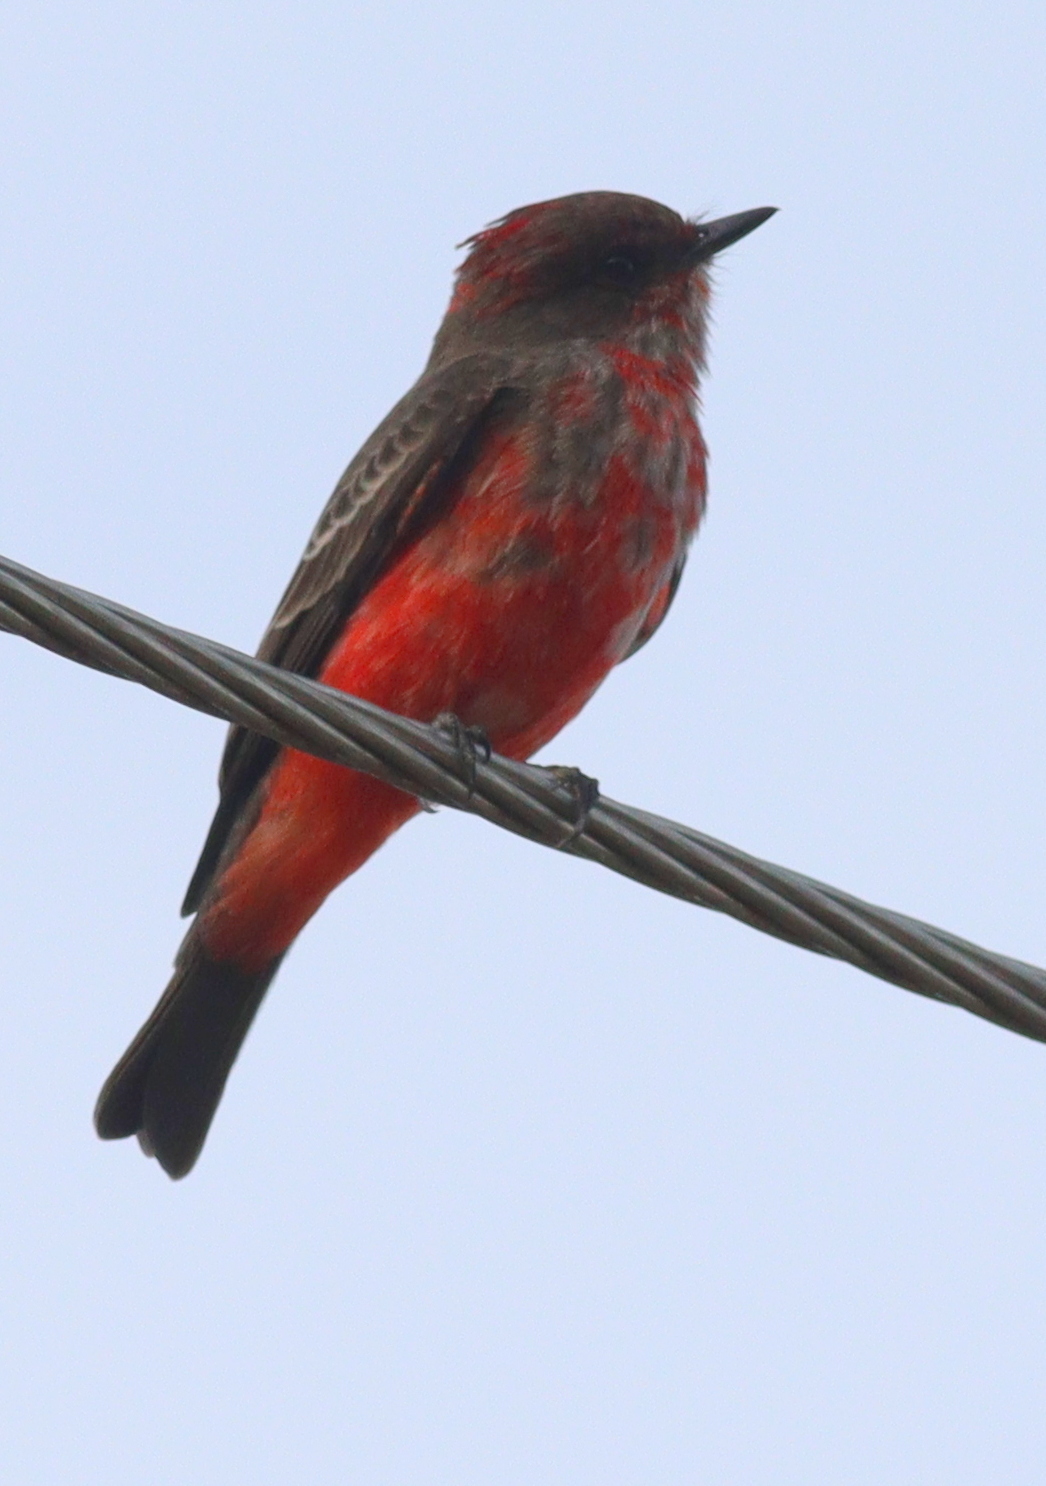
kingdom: Animalia
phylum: Chordata
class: Aves
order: Passeriformes
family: Tyrannidae
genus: Pyrocephalus
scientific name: Pyrocephalus rubinus
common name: Vermilion flycatcher
